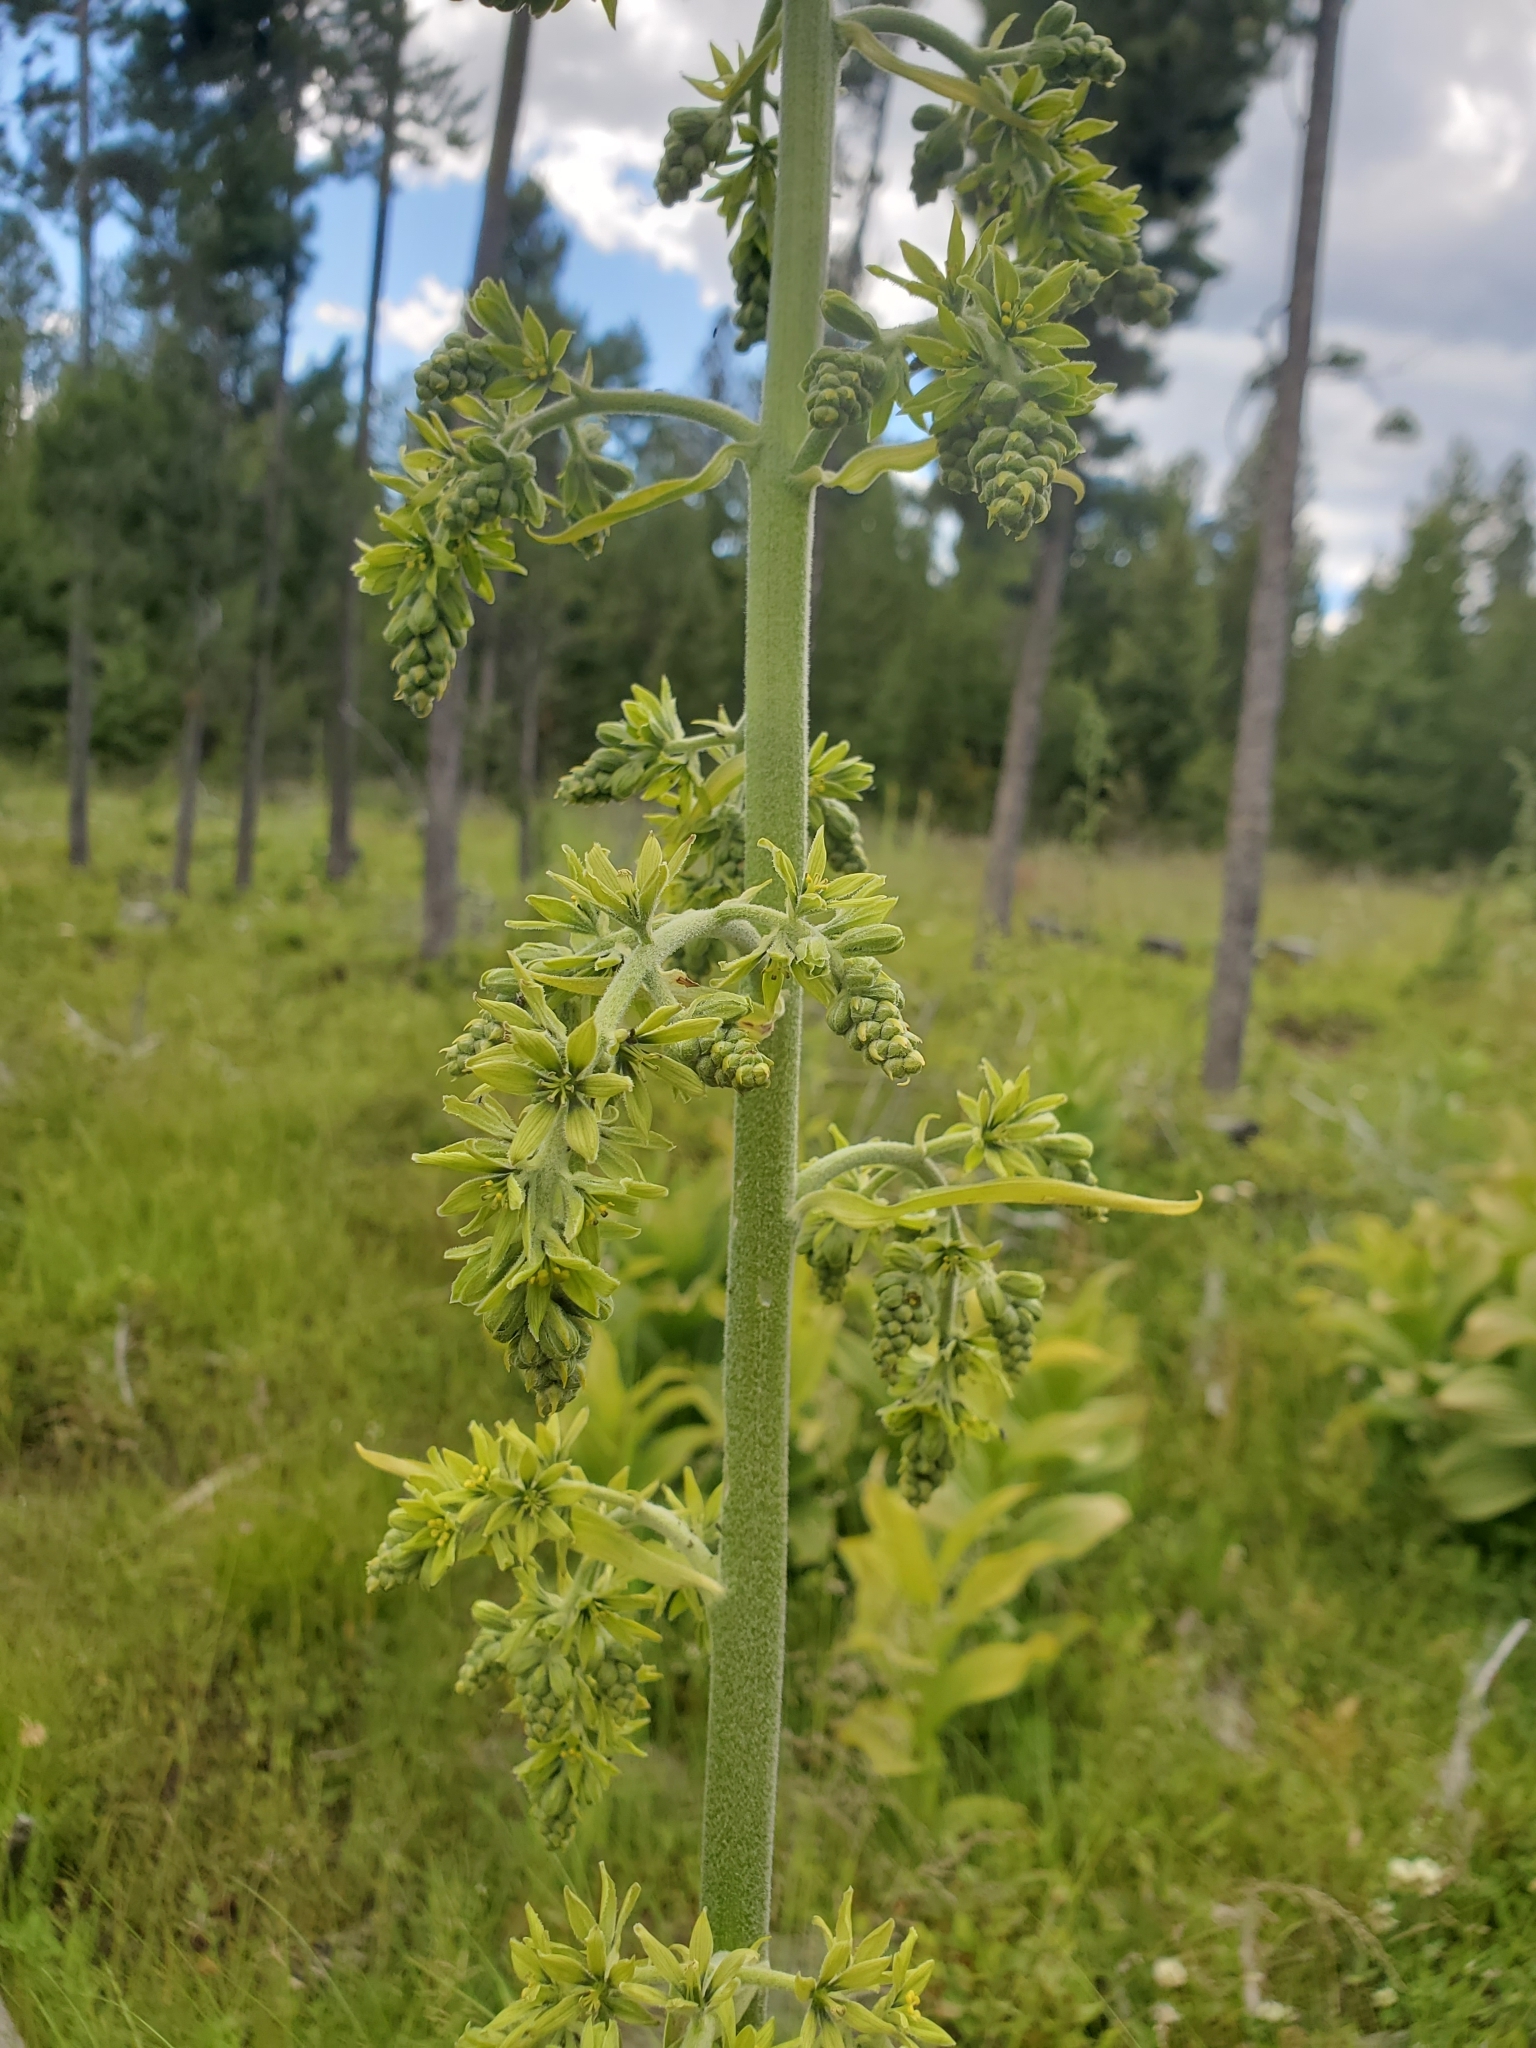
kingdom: Plantae
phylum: Tracheophyta
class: Liliopsida
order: Liliales
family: Melanthiaceae
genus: Veratrum
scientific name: Veratrum viride
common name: American false hellebore
